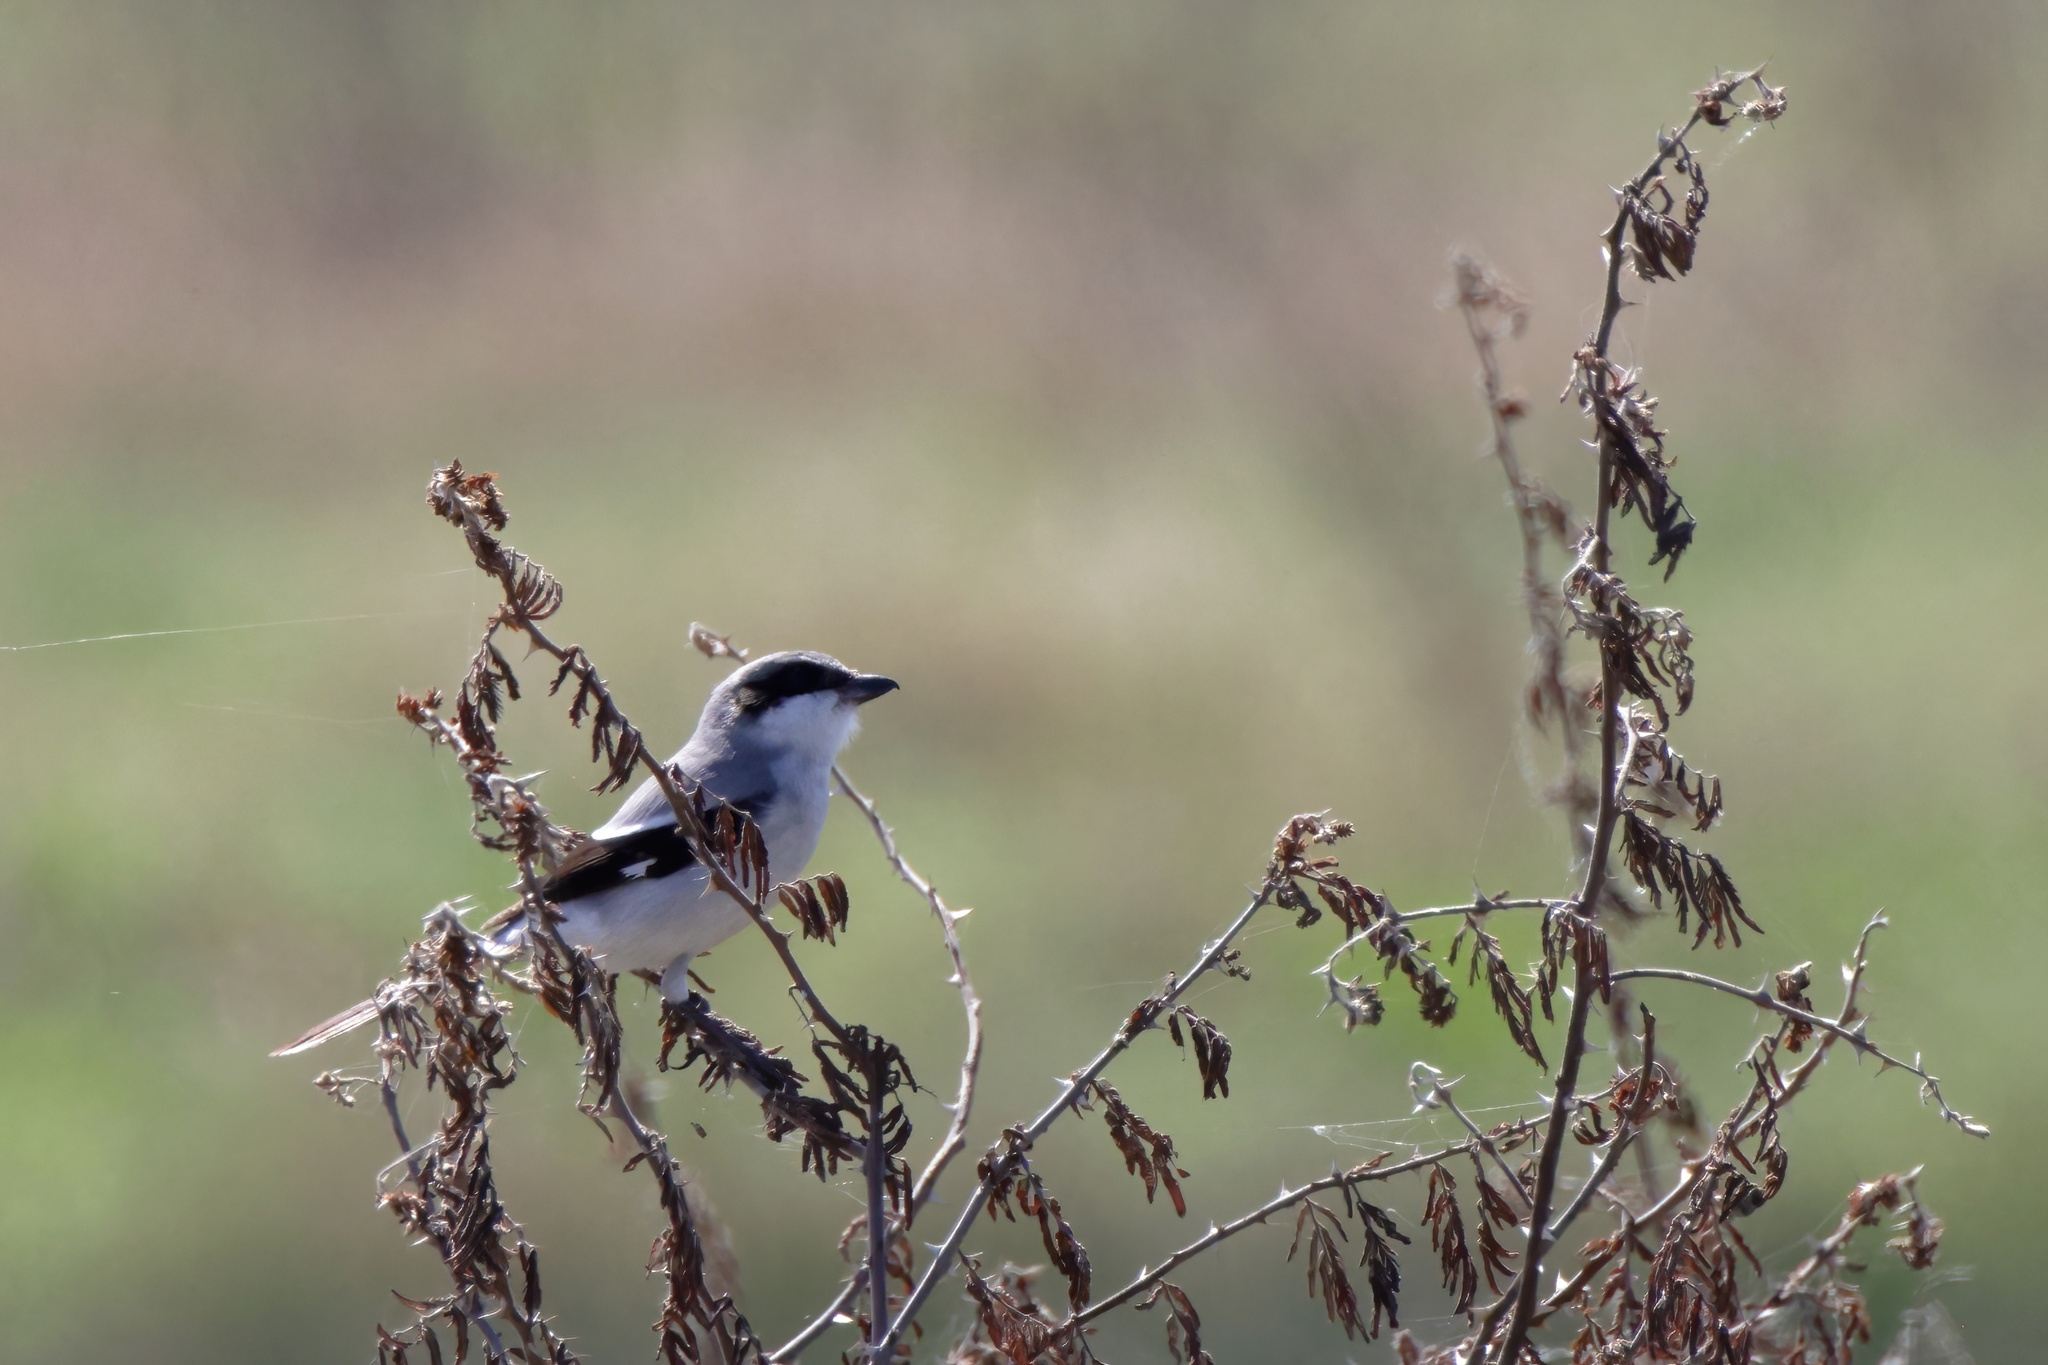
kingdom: Animalia
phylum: Chordata
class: Aves
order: Passeriformes
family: Laniidae
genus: Lanius
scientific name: Lanius ludovicianus
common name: Loggerhead shrike
